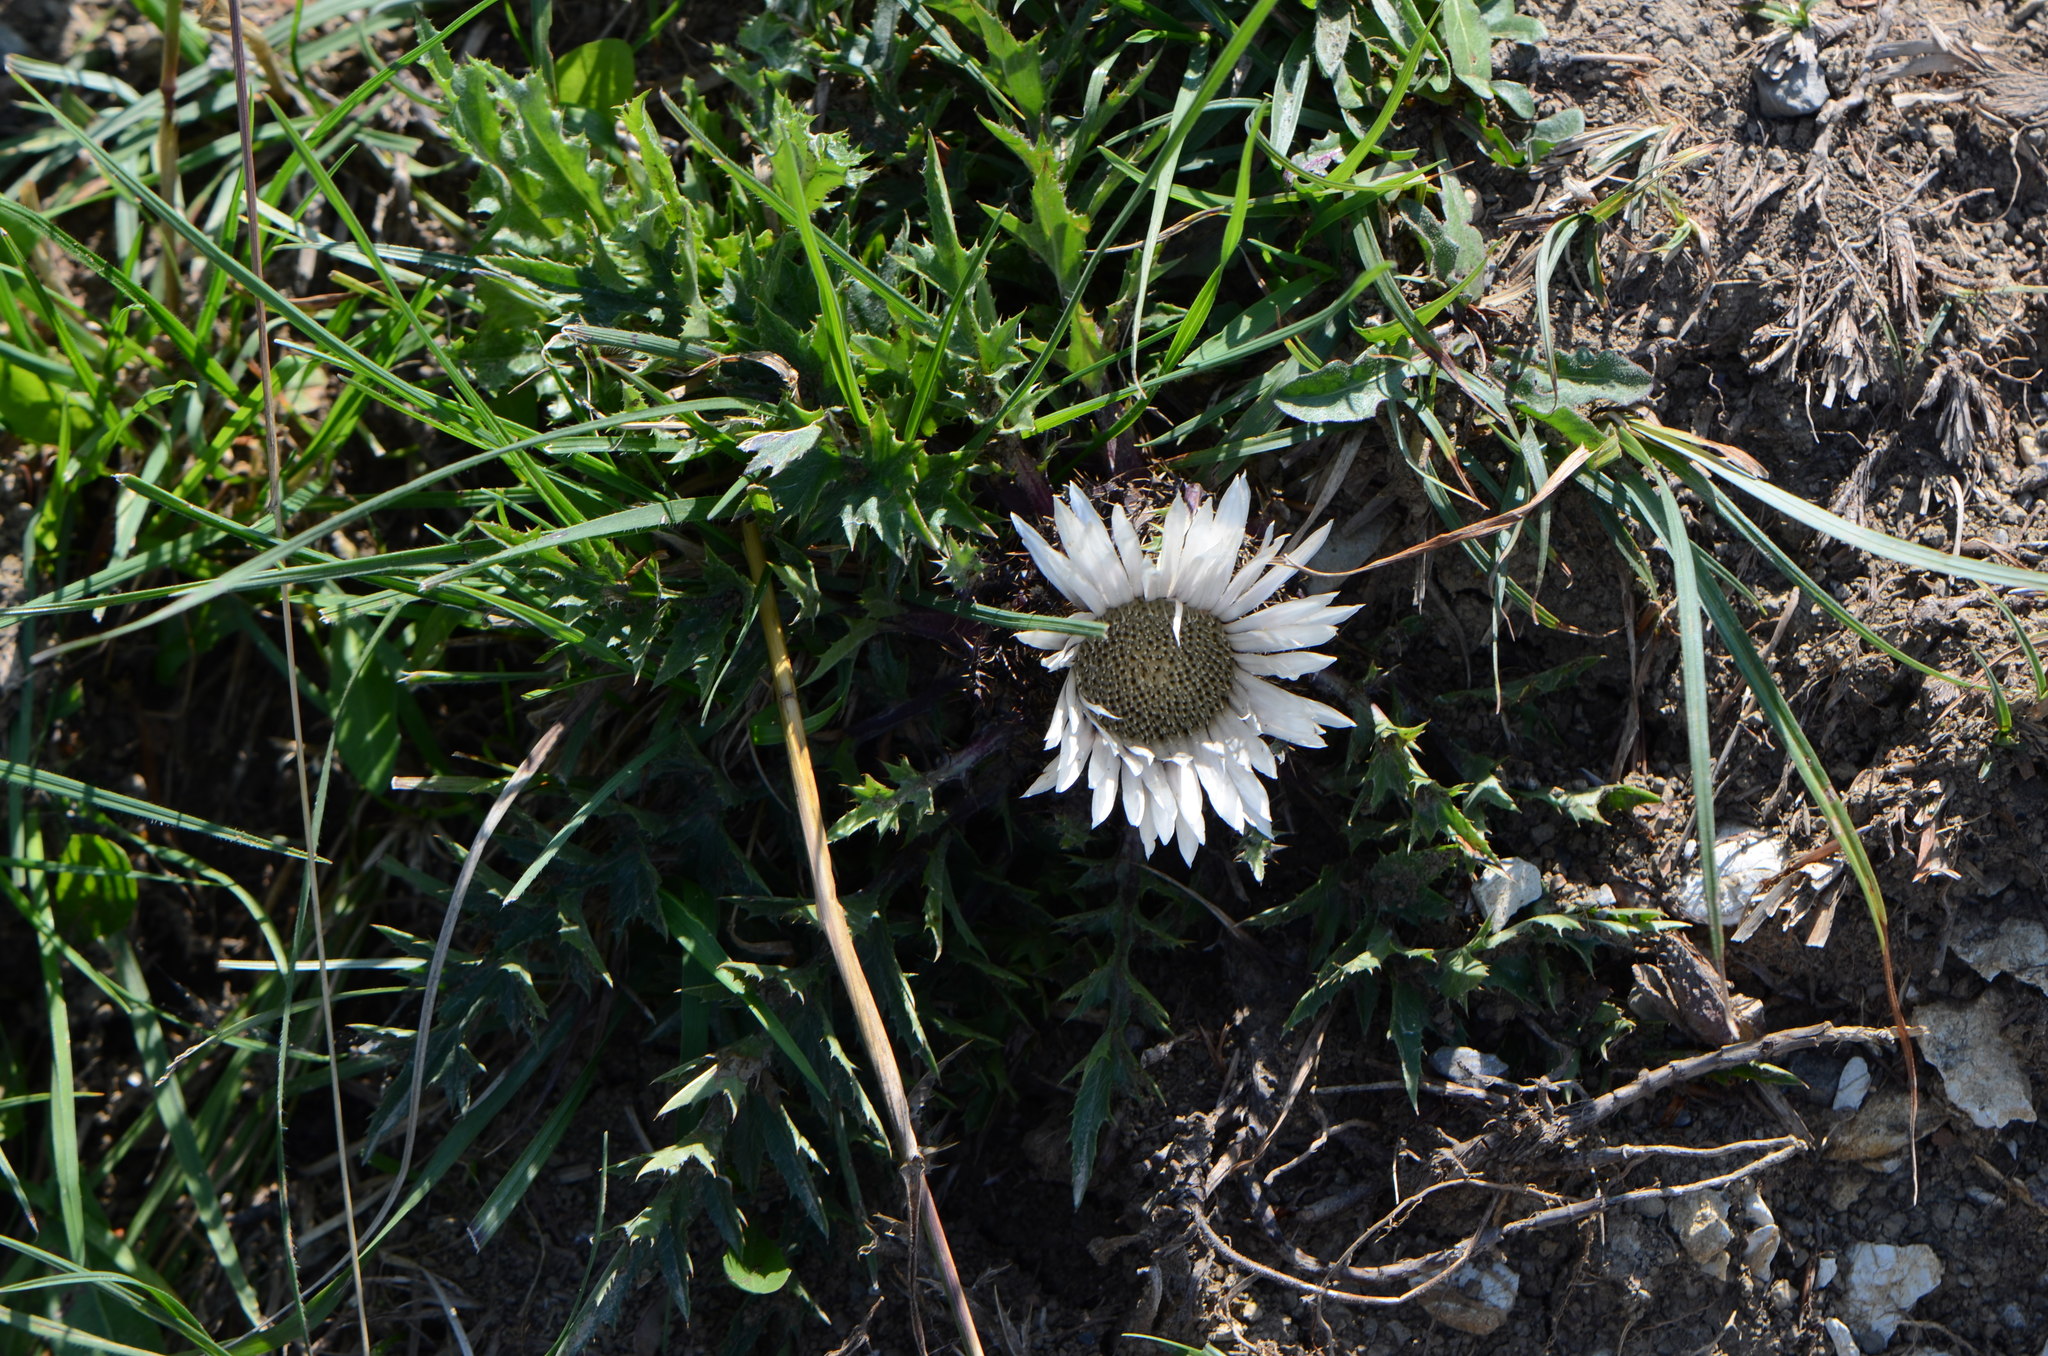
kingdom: Plantae
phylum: Tracheophyta
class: Magnoliopsida
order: Asterales
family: Asteraceae
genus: Carlina
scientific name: Carlina acaulis
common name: Stemless carline thistle
